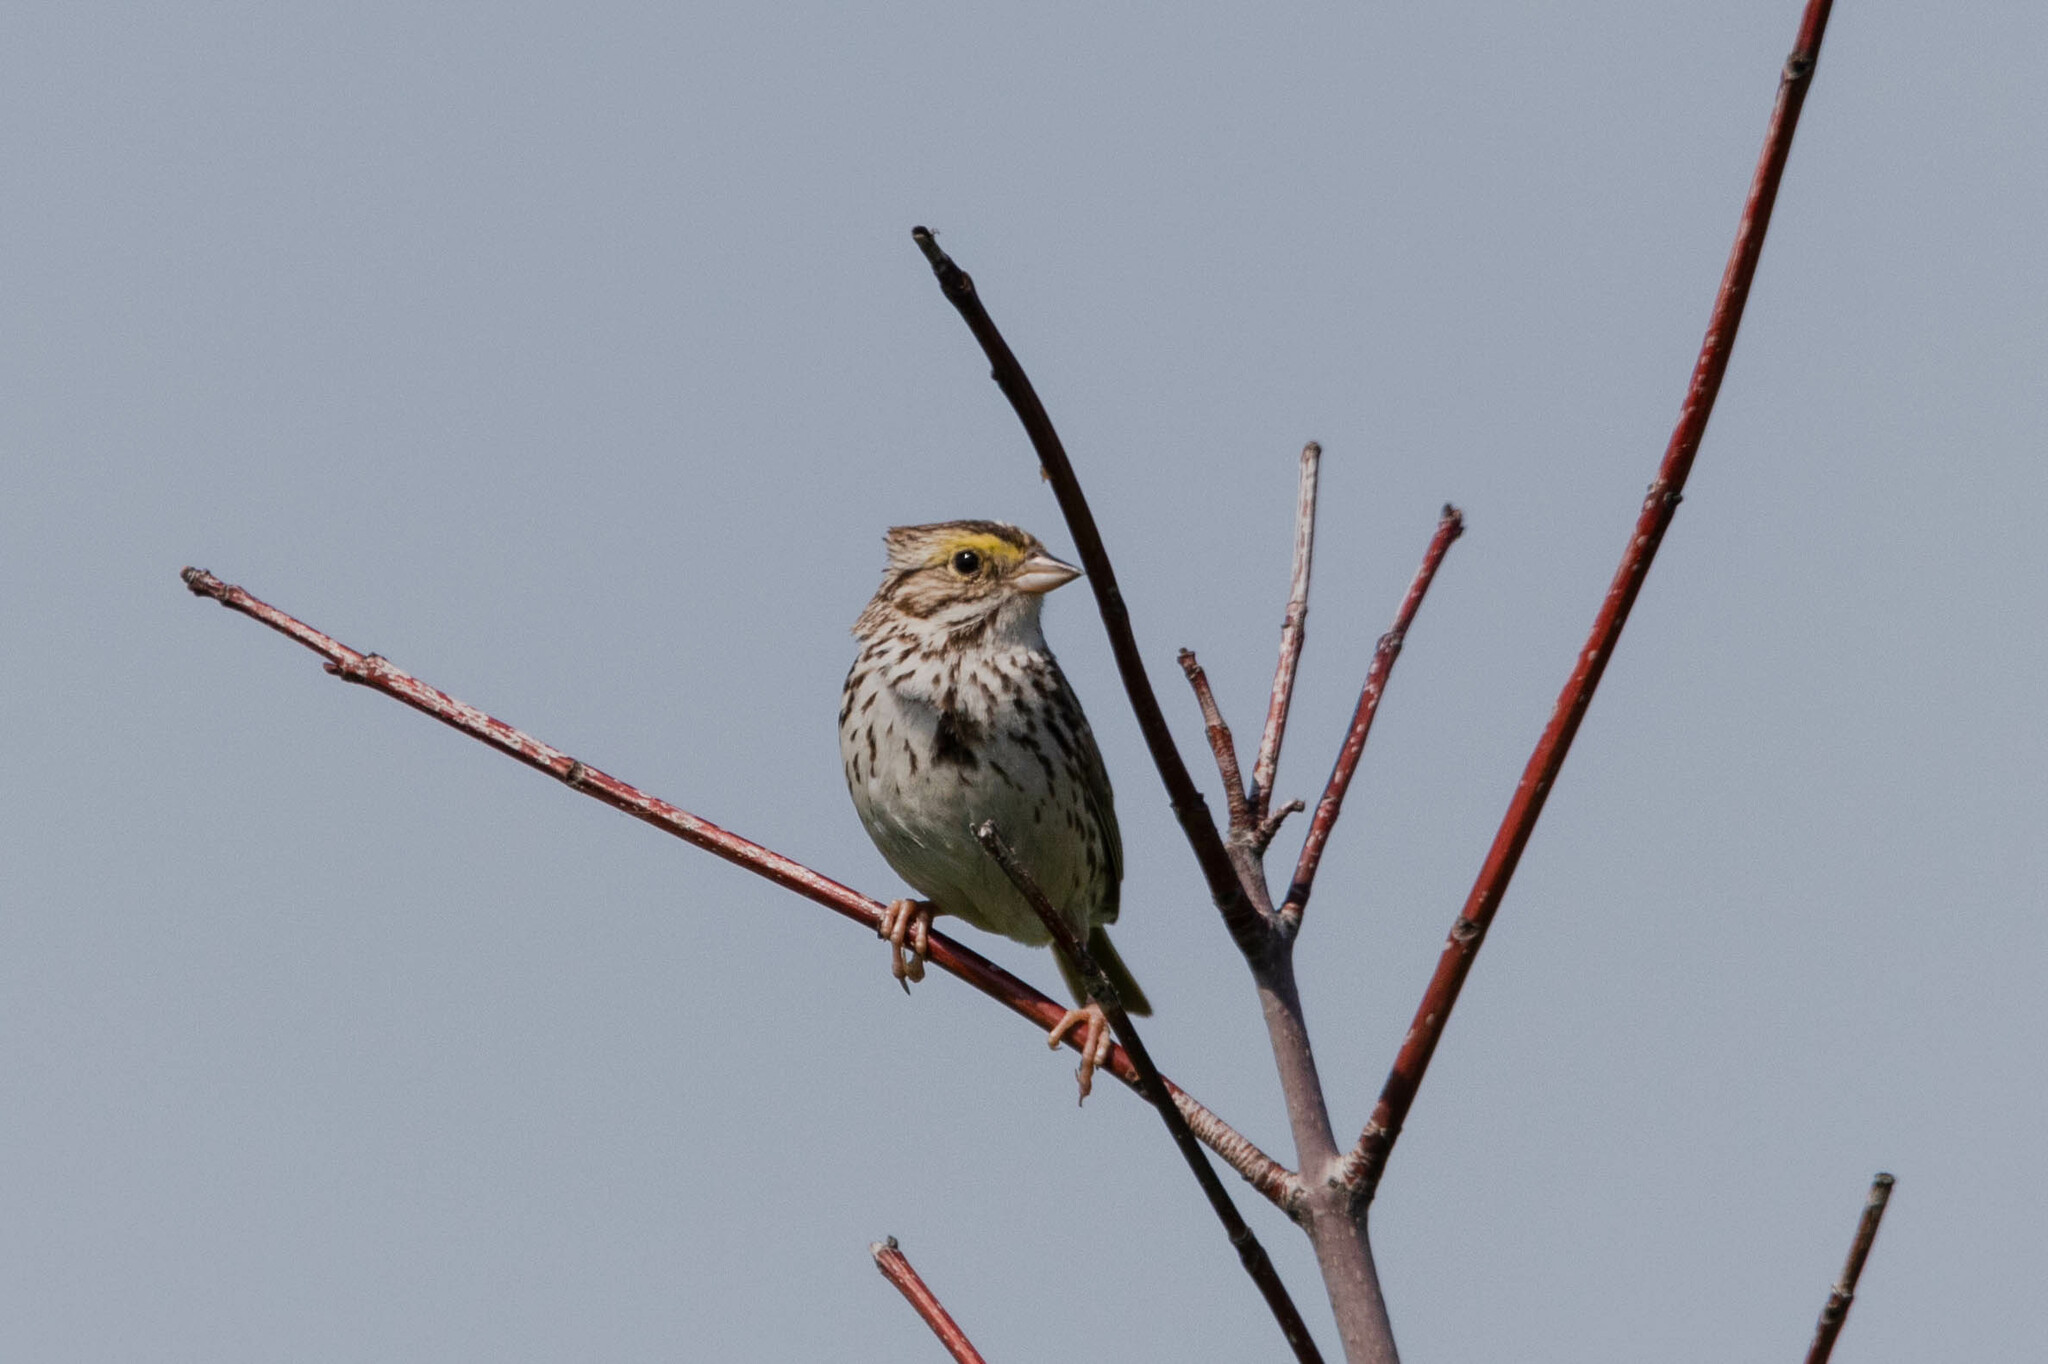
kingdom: Animalia
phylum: Chordata
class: Aves
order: Passeriformes
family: Passerellidae
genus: Passerculus
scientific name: Passerculus sandwichensis
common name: Savannah sparrow
